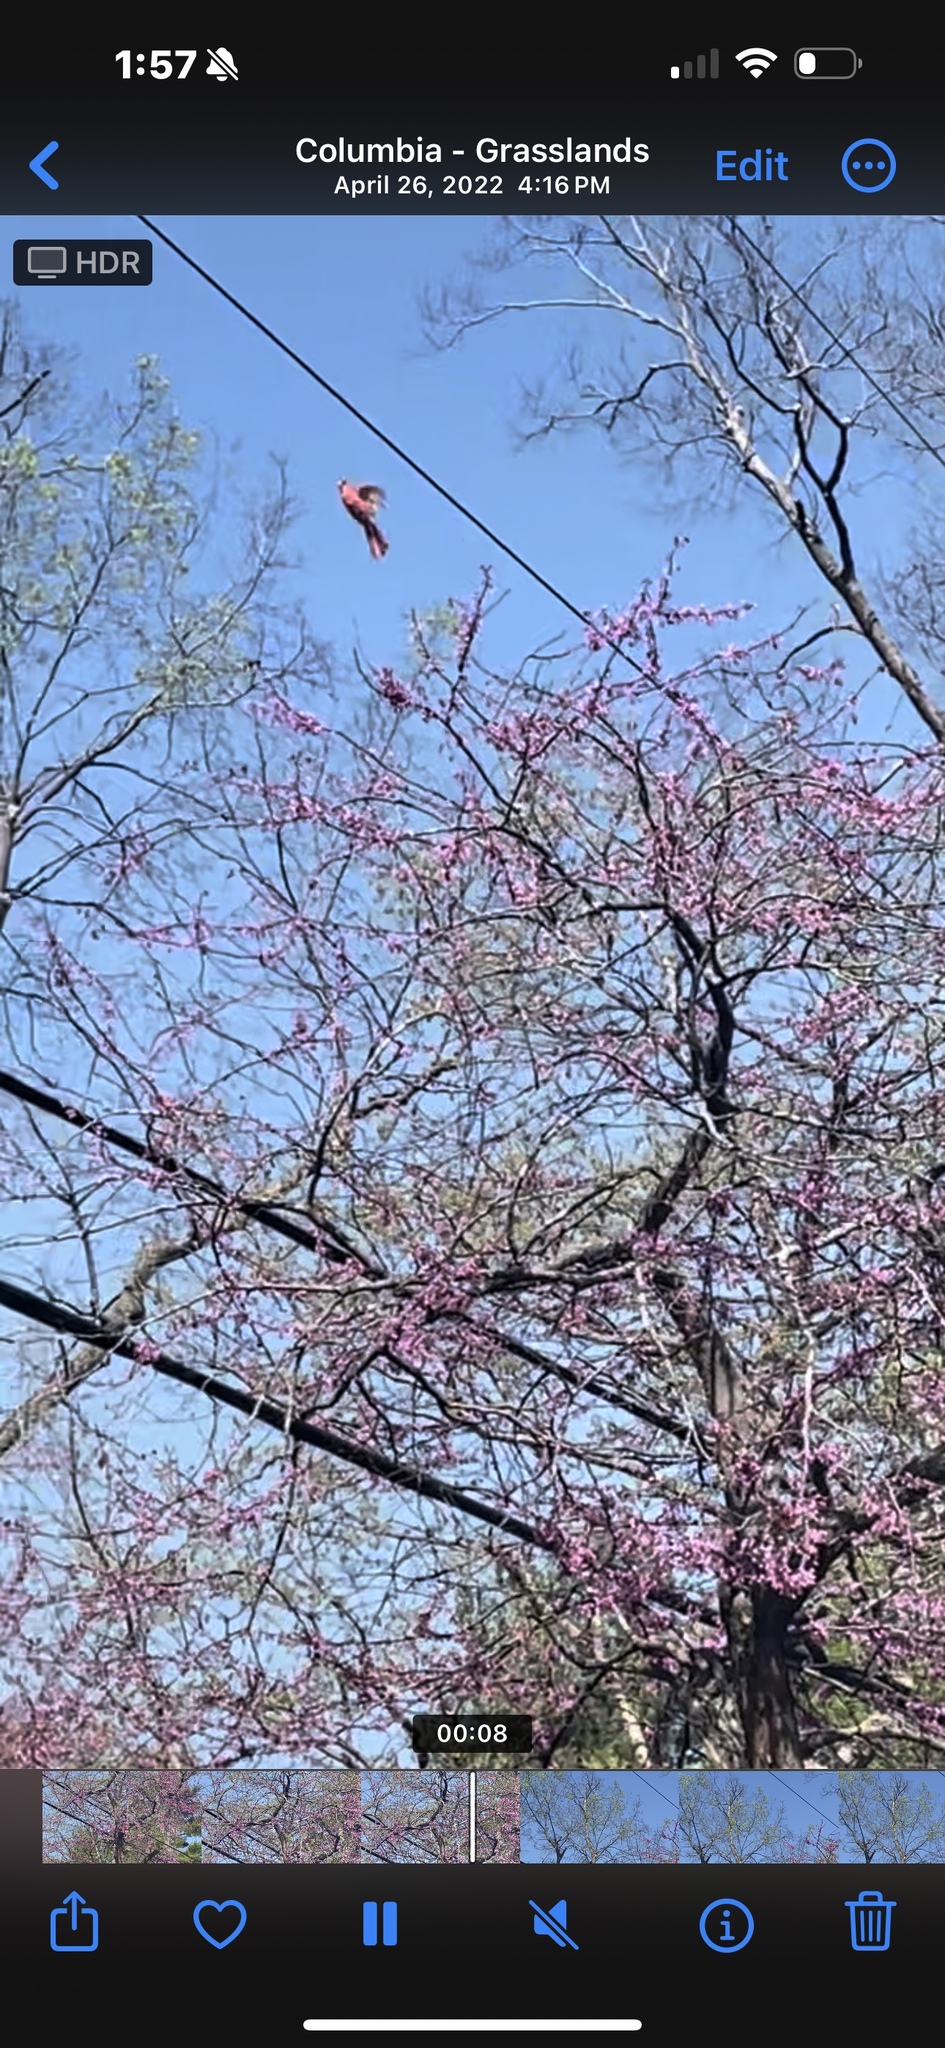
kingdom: Animalia
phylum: Chordata
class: Aves
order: Passeriformes
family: Cardinalidae
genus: Cardinalis
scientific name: Cardinalis cardinalis
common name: Northern cardinal
